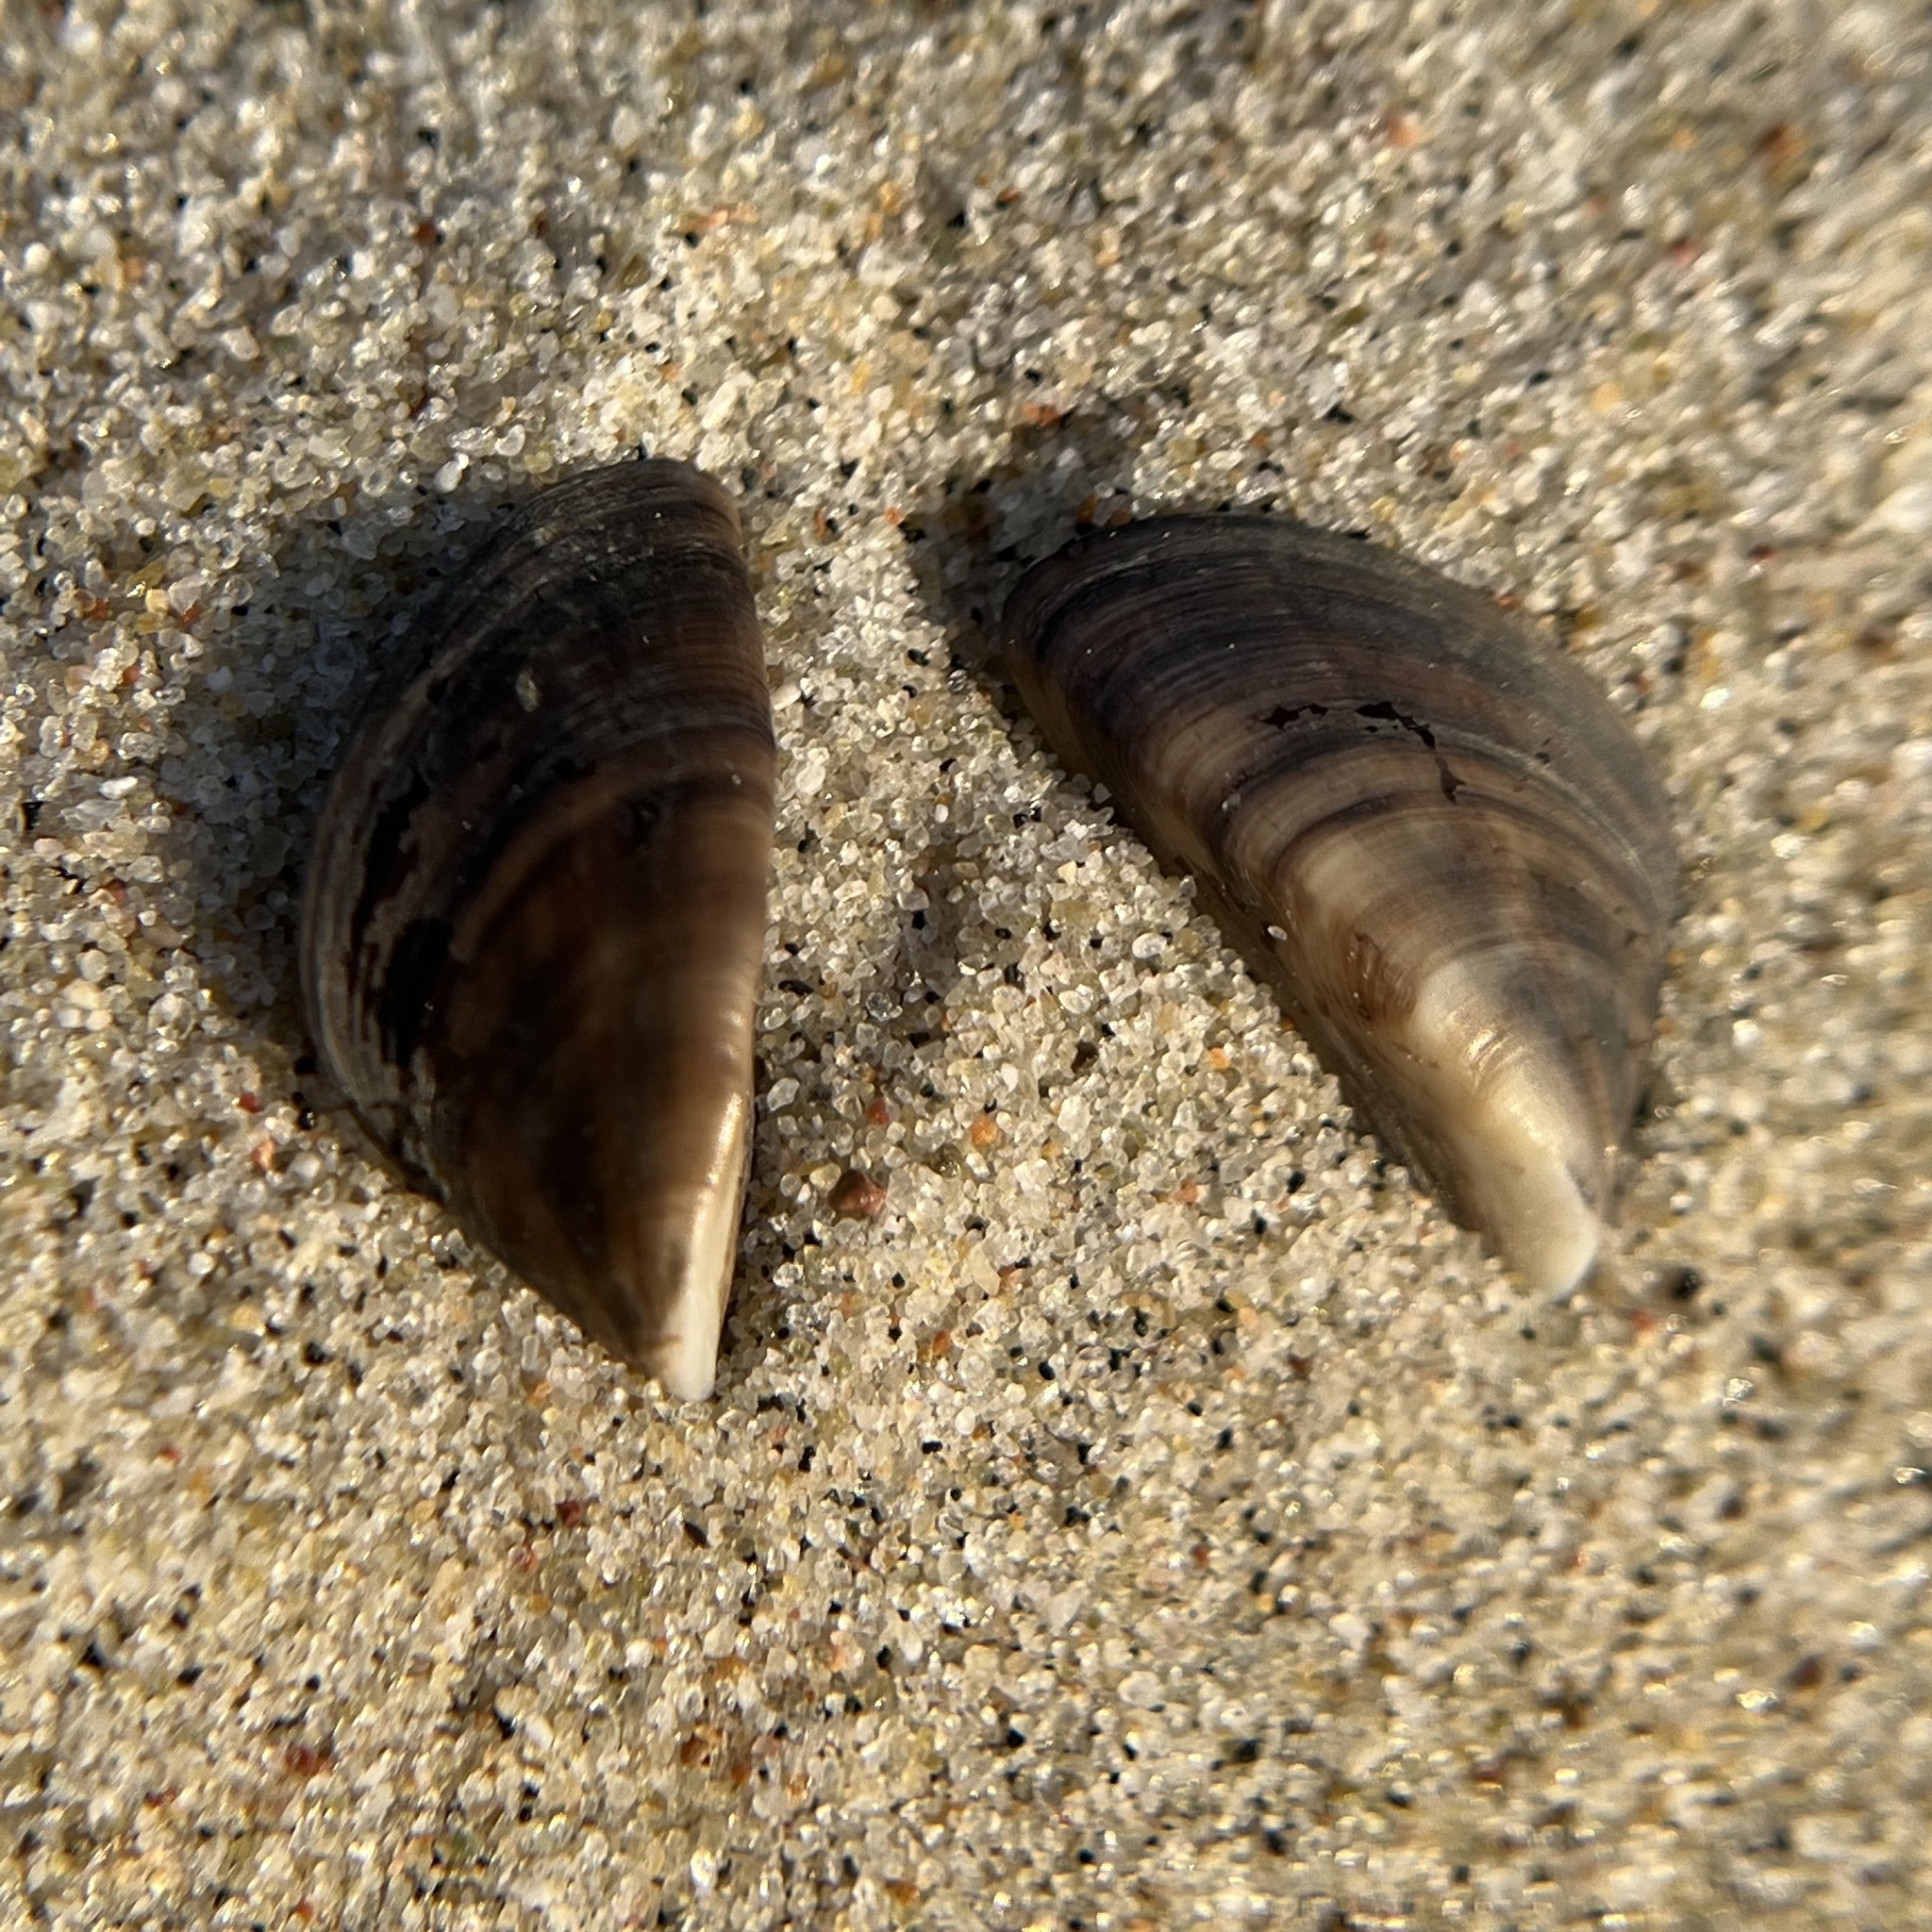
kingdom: Animalia
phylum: Mollusca
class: Bivalvia
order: Myida
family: Dreissenidae
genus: Dreissena
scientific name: Dreissena polymorpha
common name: Zebra mussel
